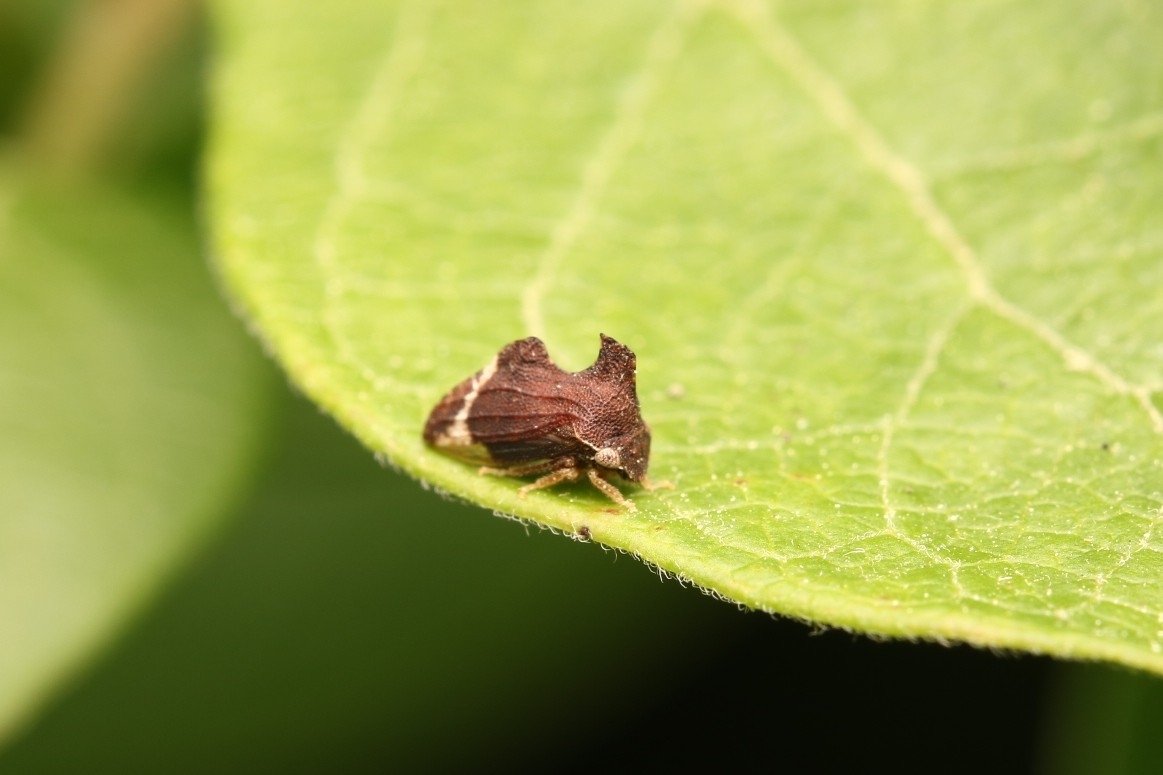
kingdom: Animalia
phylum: Arthropoda
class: Insecta
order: Hemiptera
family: Membracidae
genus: Entylia
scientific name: Entylia carinata
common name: Keeled treehopper
